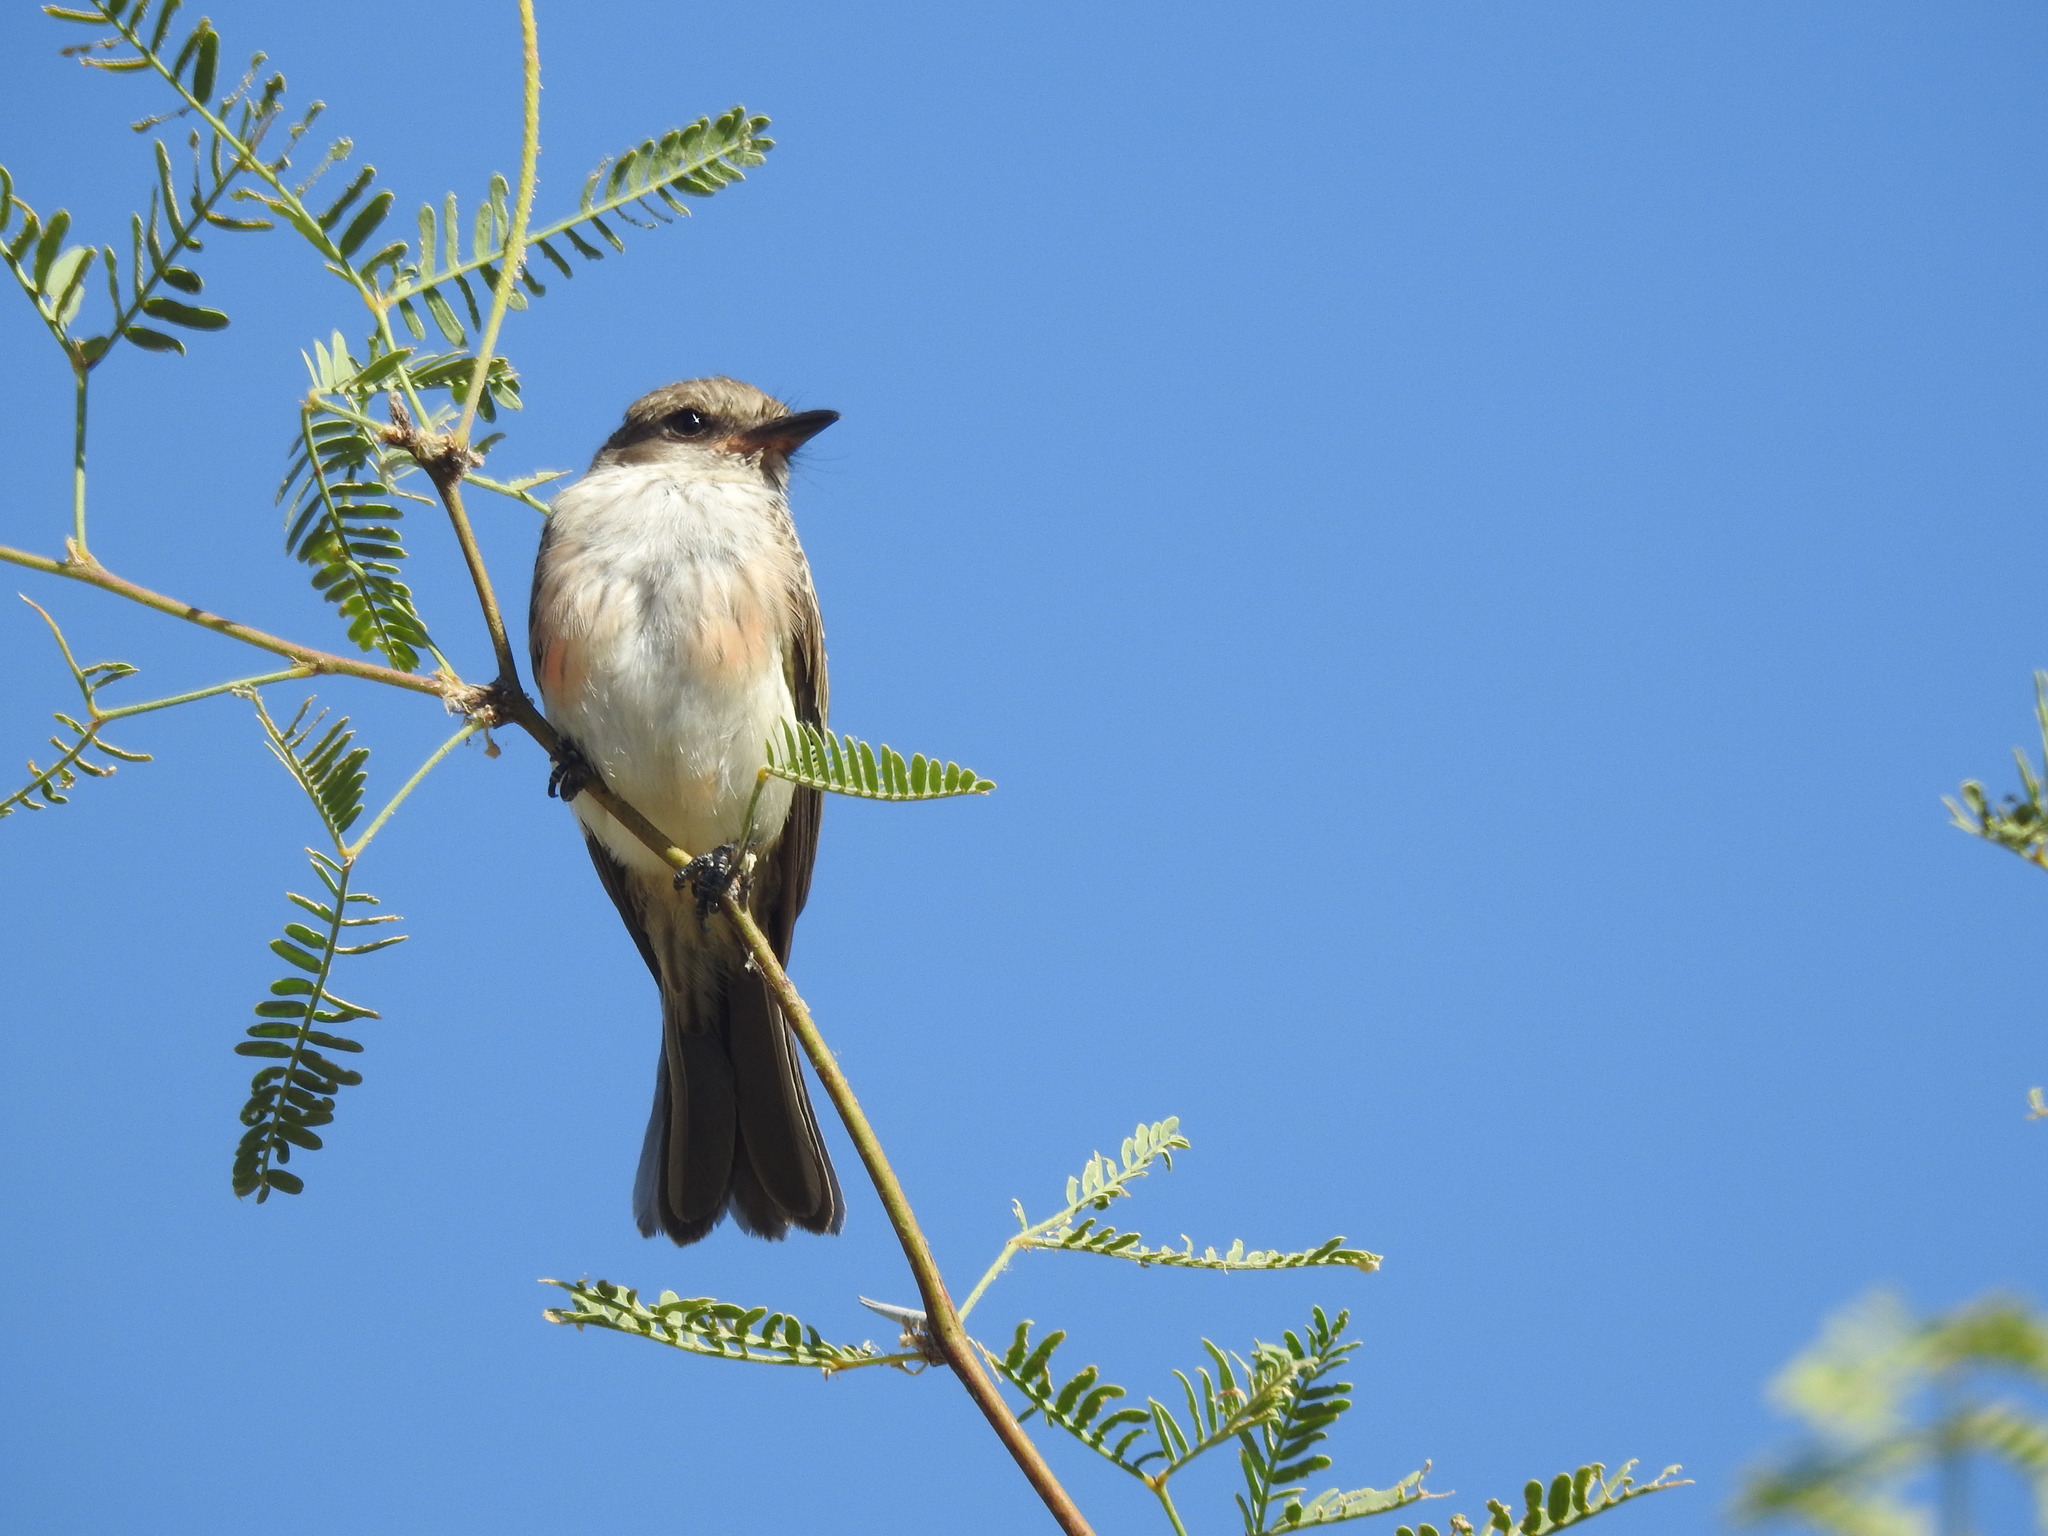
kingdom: Animalia
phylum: Chordata
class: Aves
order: Passeriformes
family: Tyrannidae
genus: Pyrocephalus
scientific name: Pyrocephalus rubinus
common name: Vermilion flycatcher
